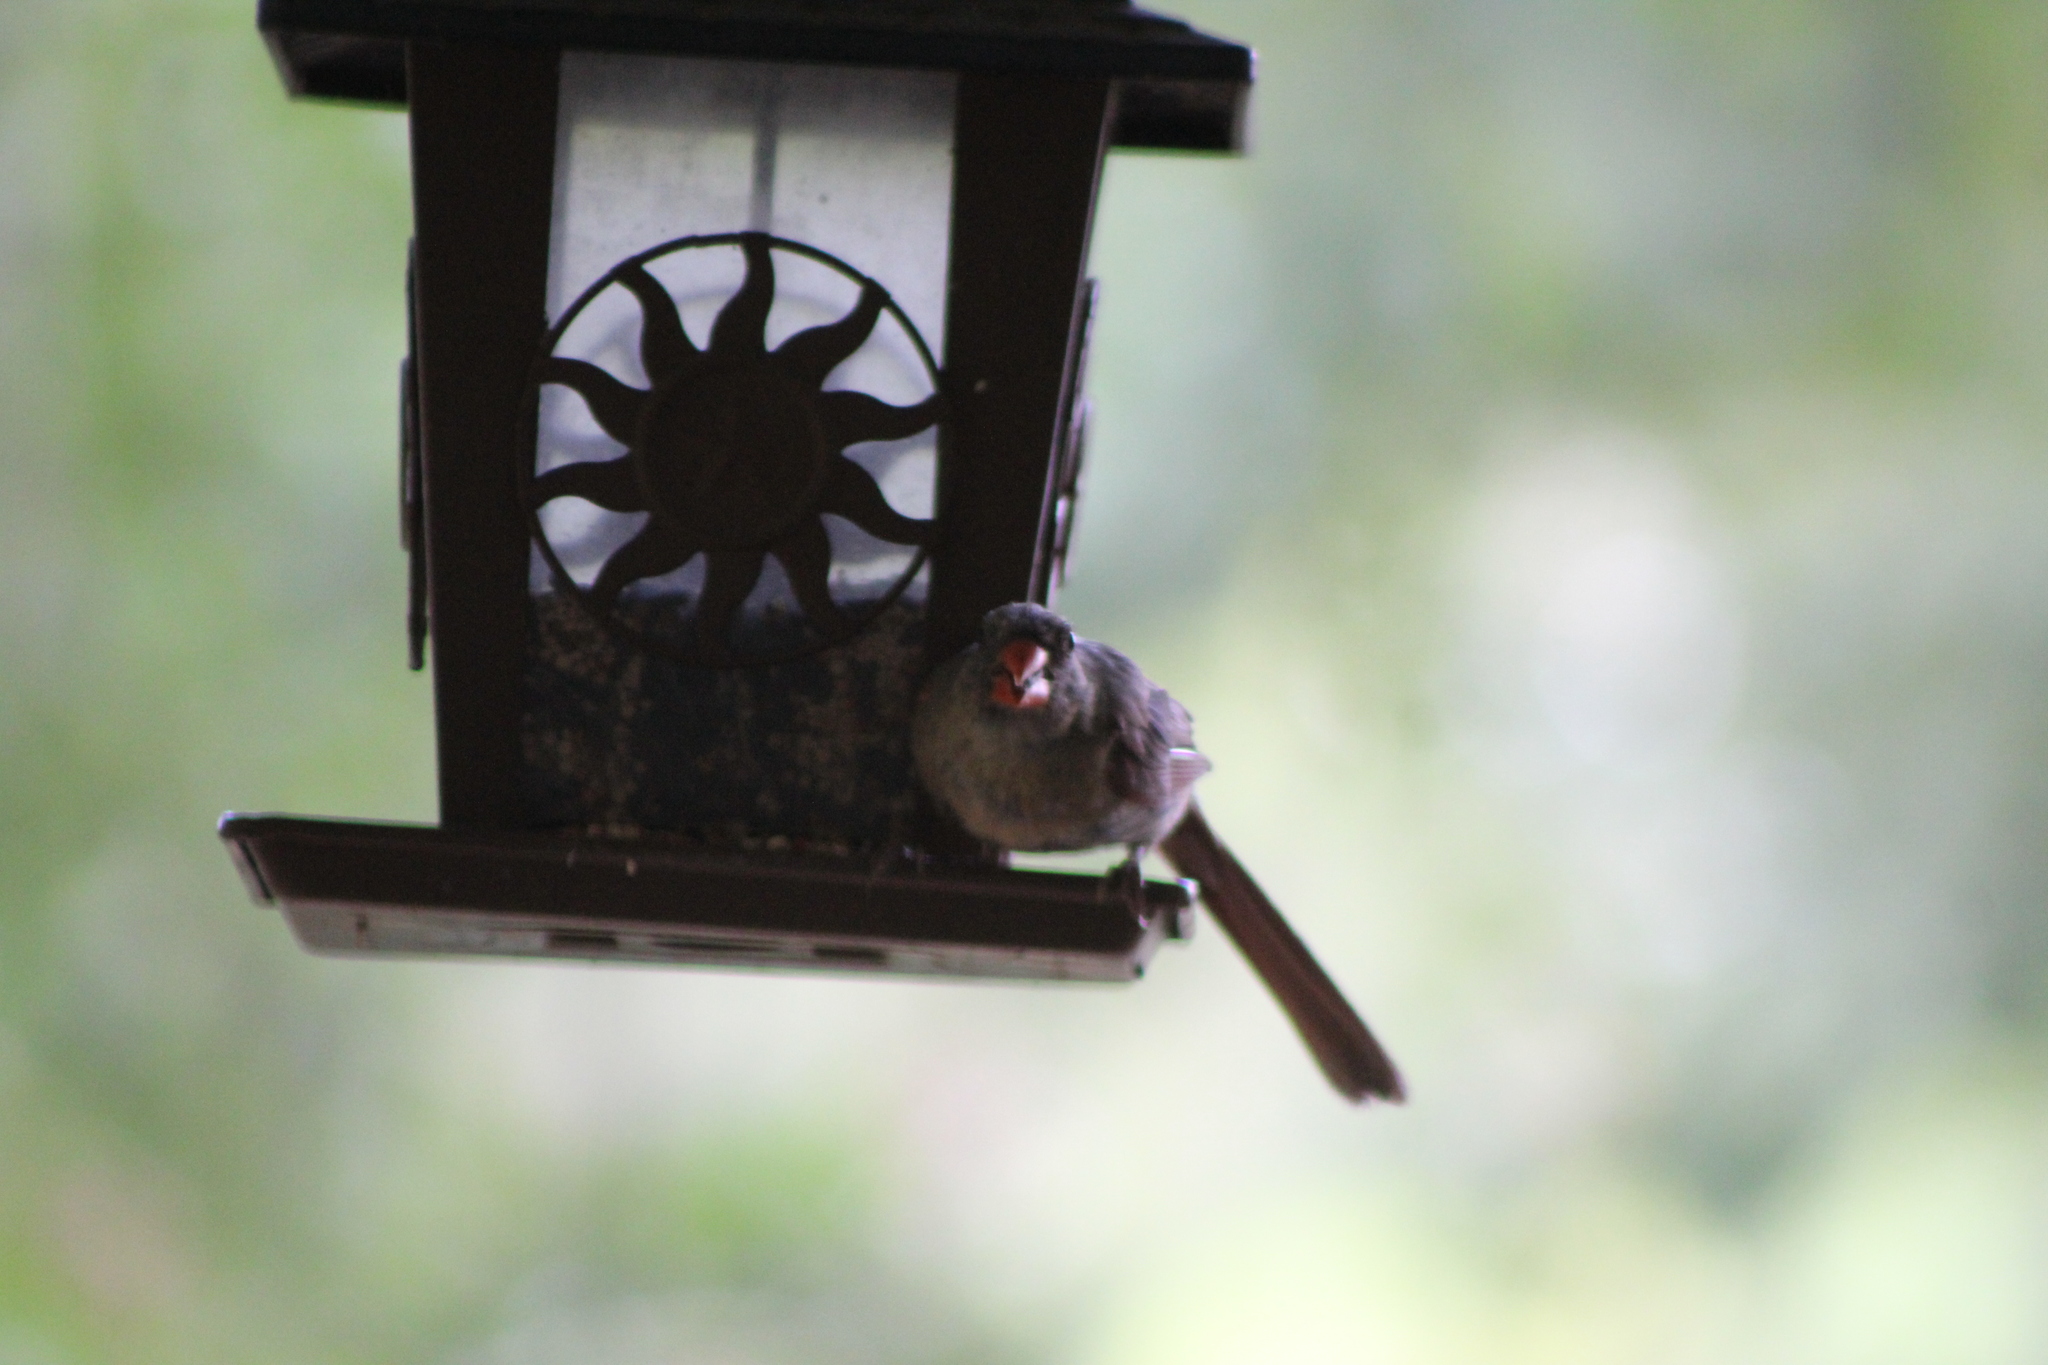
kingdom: Animalia
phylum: Chordata
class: Aves
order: Passeriformes
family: Cardinalidae
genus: Cardinalis
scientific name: Cardinalis cardinalis
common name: Northern cardinal
